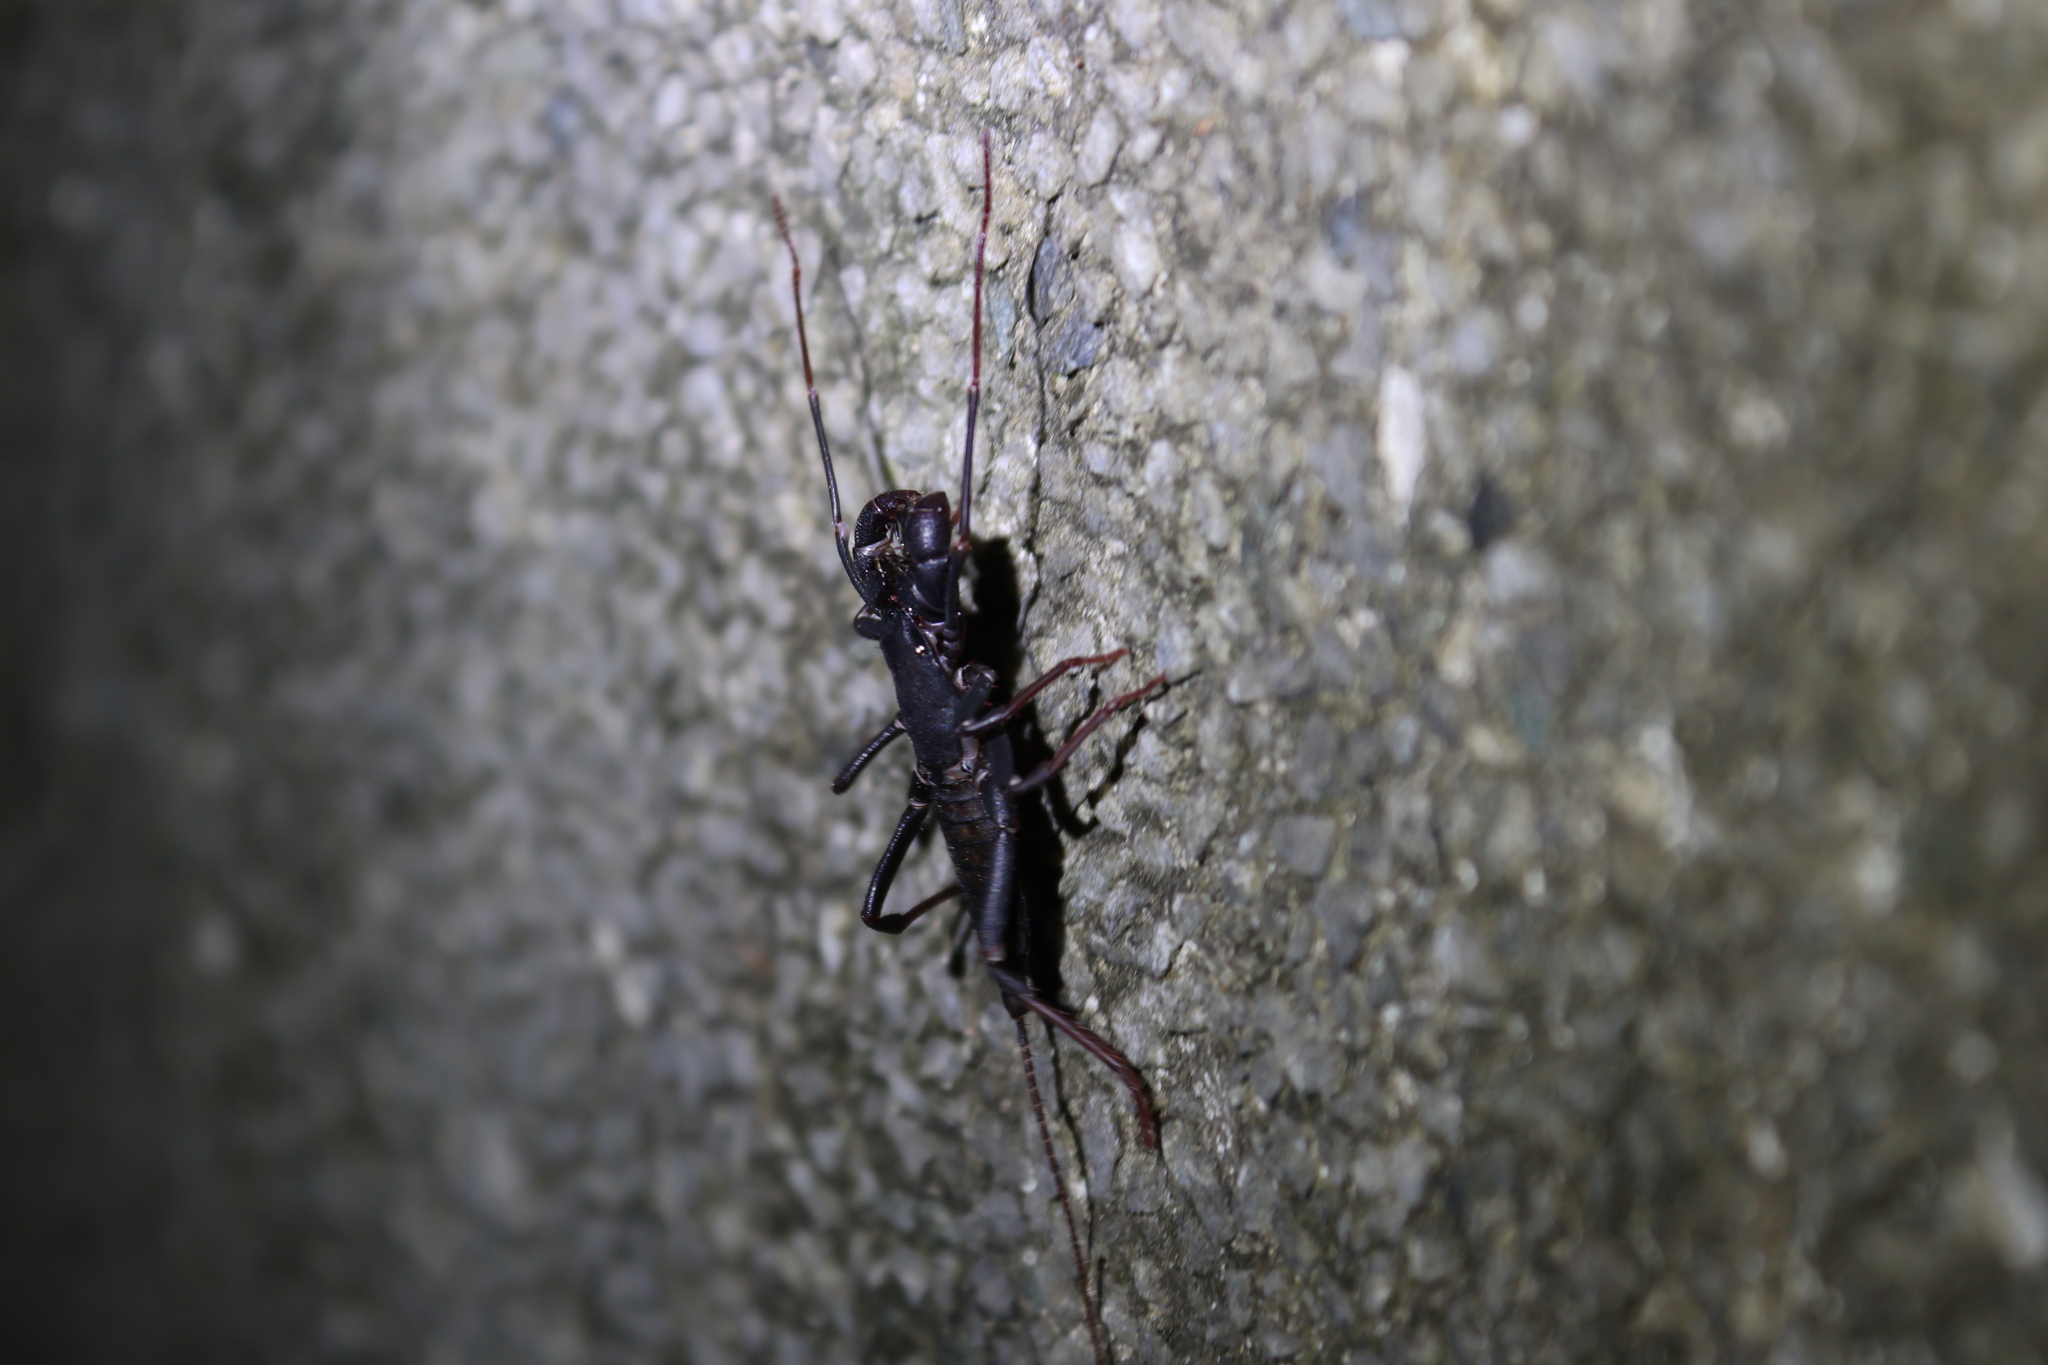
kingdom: Animalia
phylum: Arthropoda
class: Arachnida
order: Uropygi
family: Thelyphonidae
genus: Typopeltis
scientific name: Typopeltis crucifer
